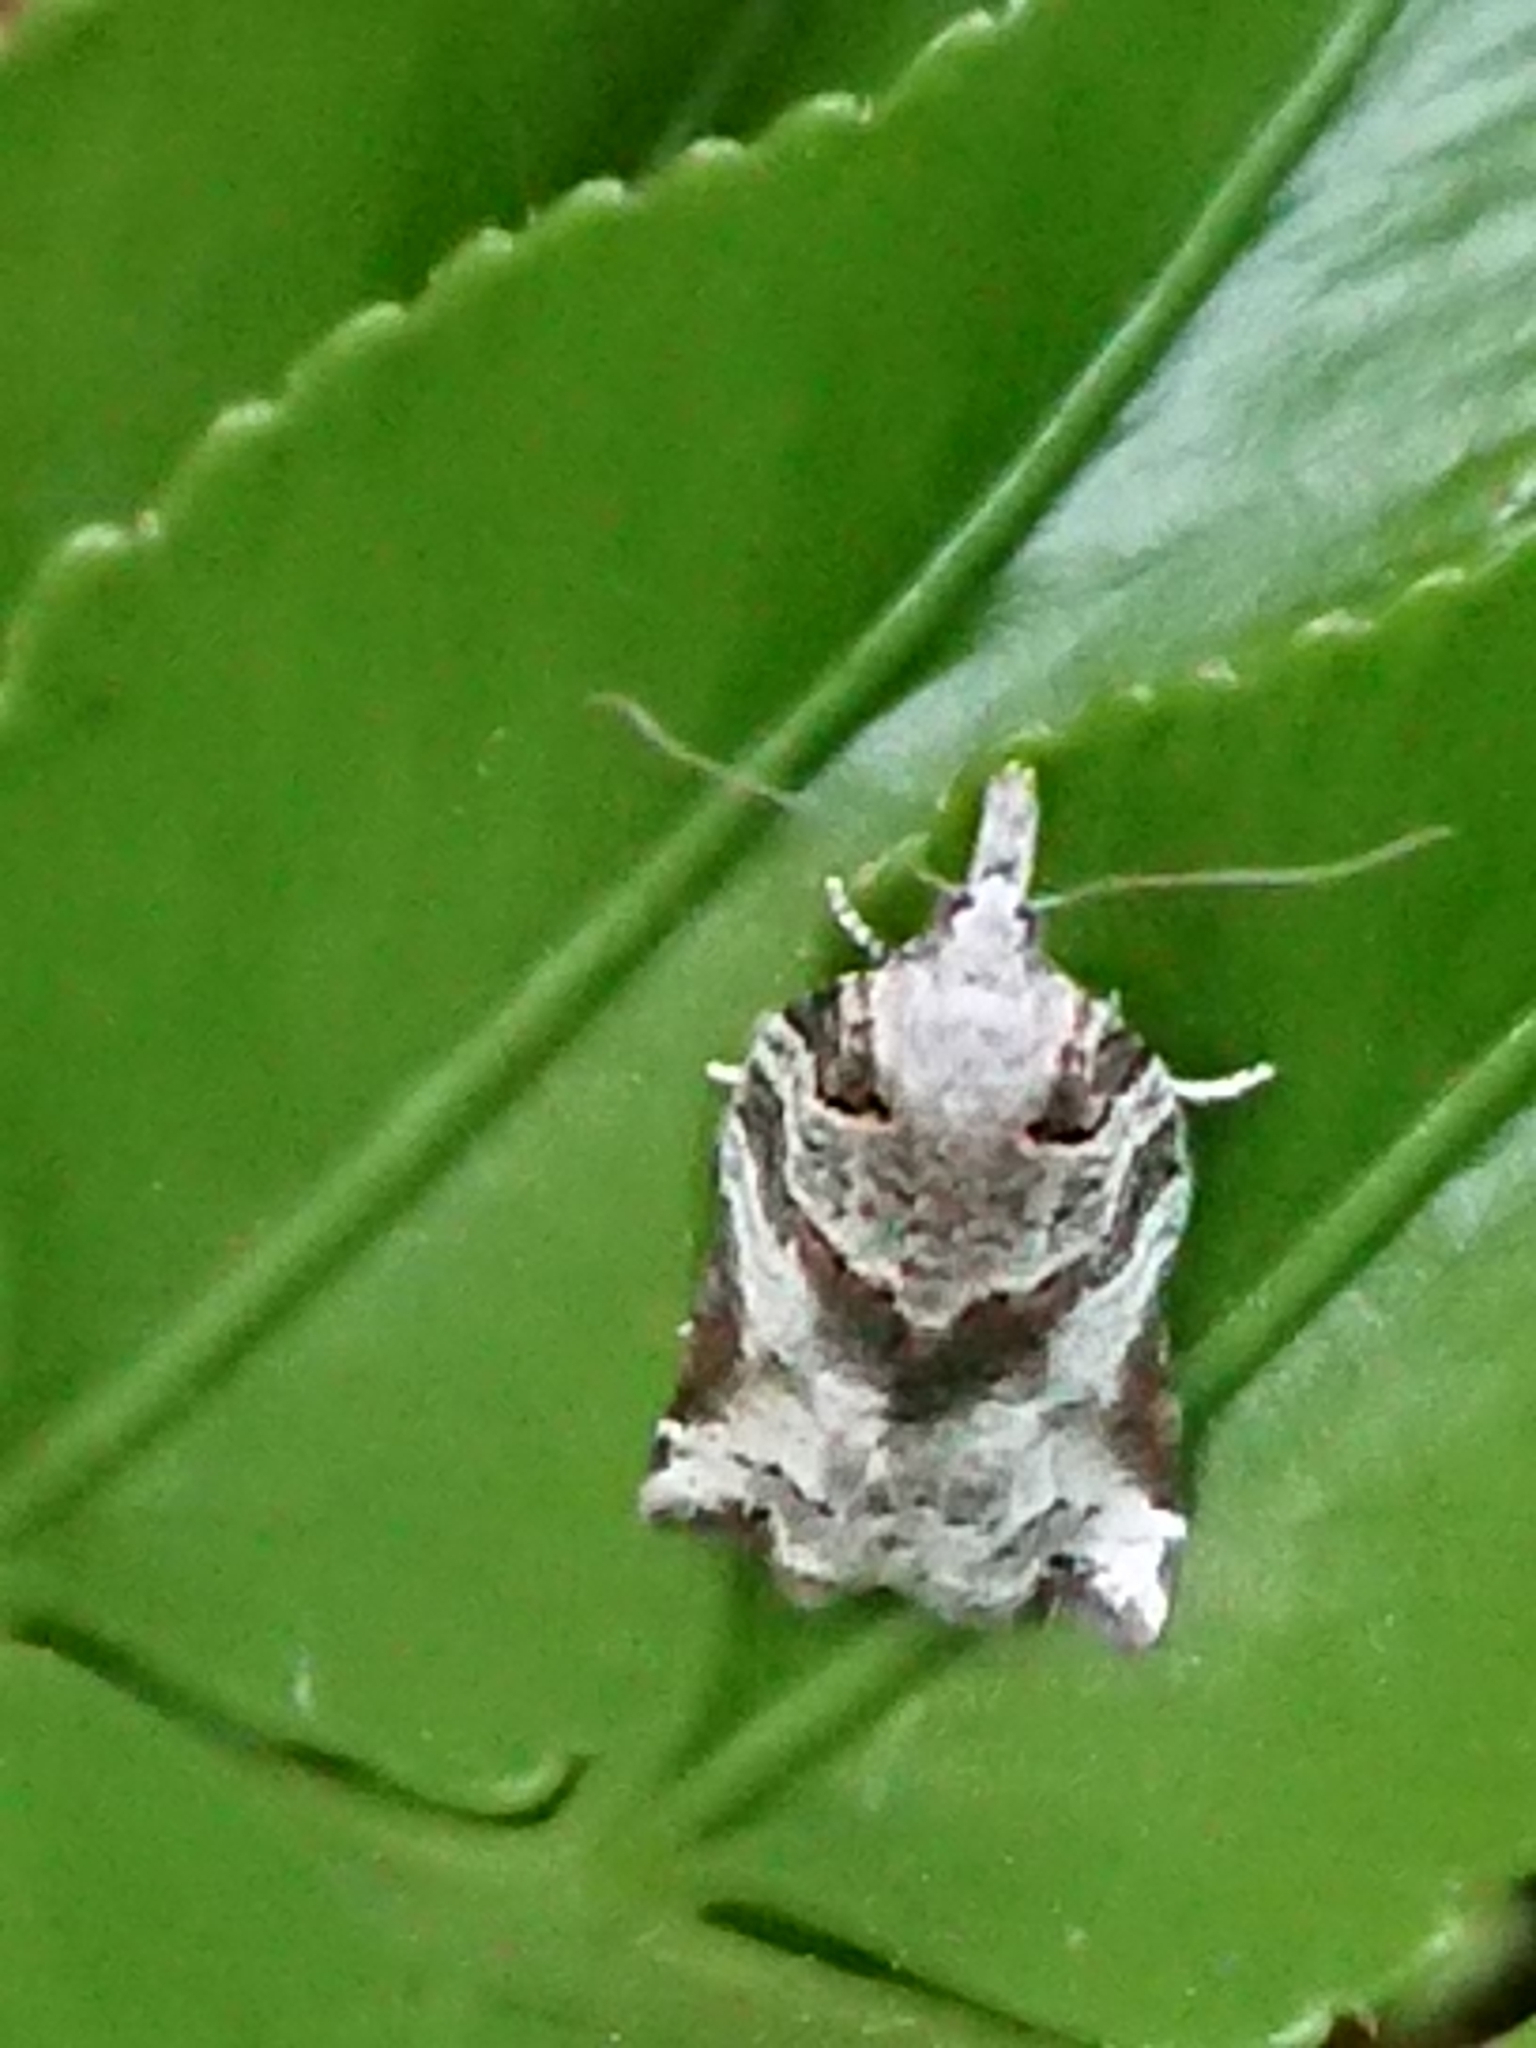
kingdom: Animalia
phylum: Arthropoda
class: Insecta
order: Lepidoptera
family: Tortricidae
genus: Harmologa
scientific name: Harmologa amplexana
